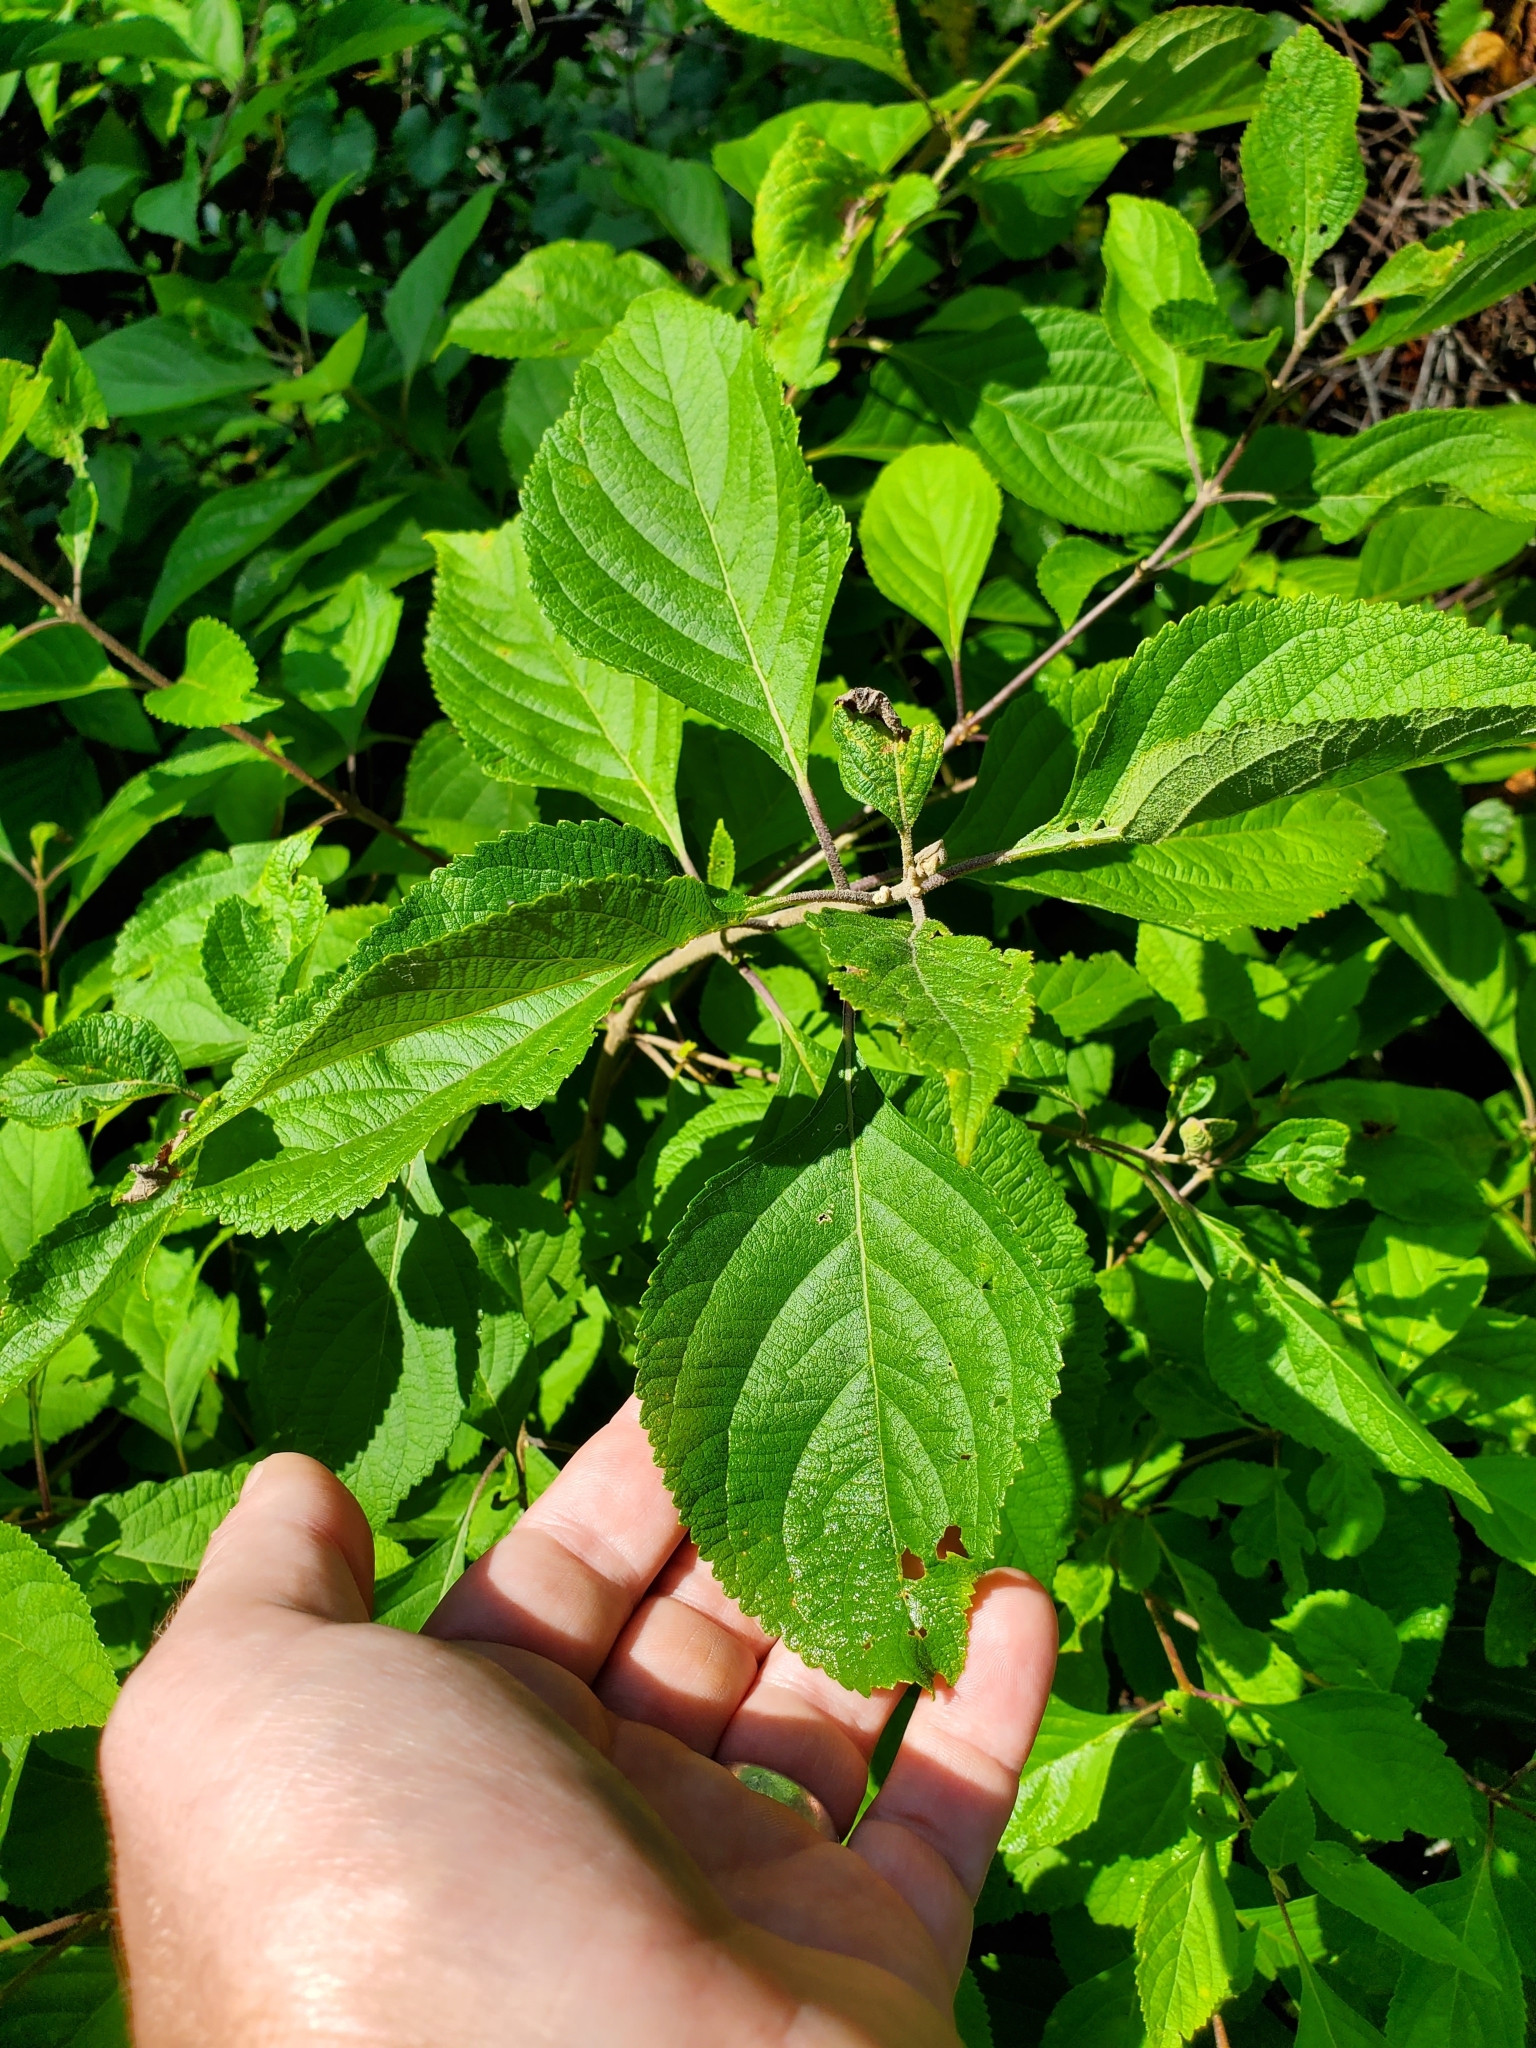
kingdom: Plantae
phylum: Tracheophyta
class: Magnoliopsida
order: Lamiales
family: Lamiaceae
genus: Callicarpa
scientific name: Callicarpa americana
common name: American beautyberry
